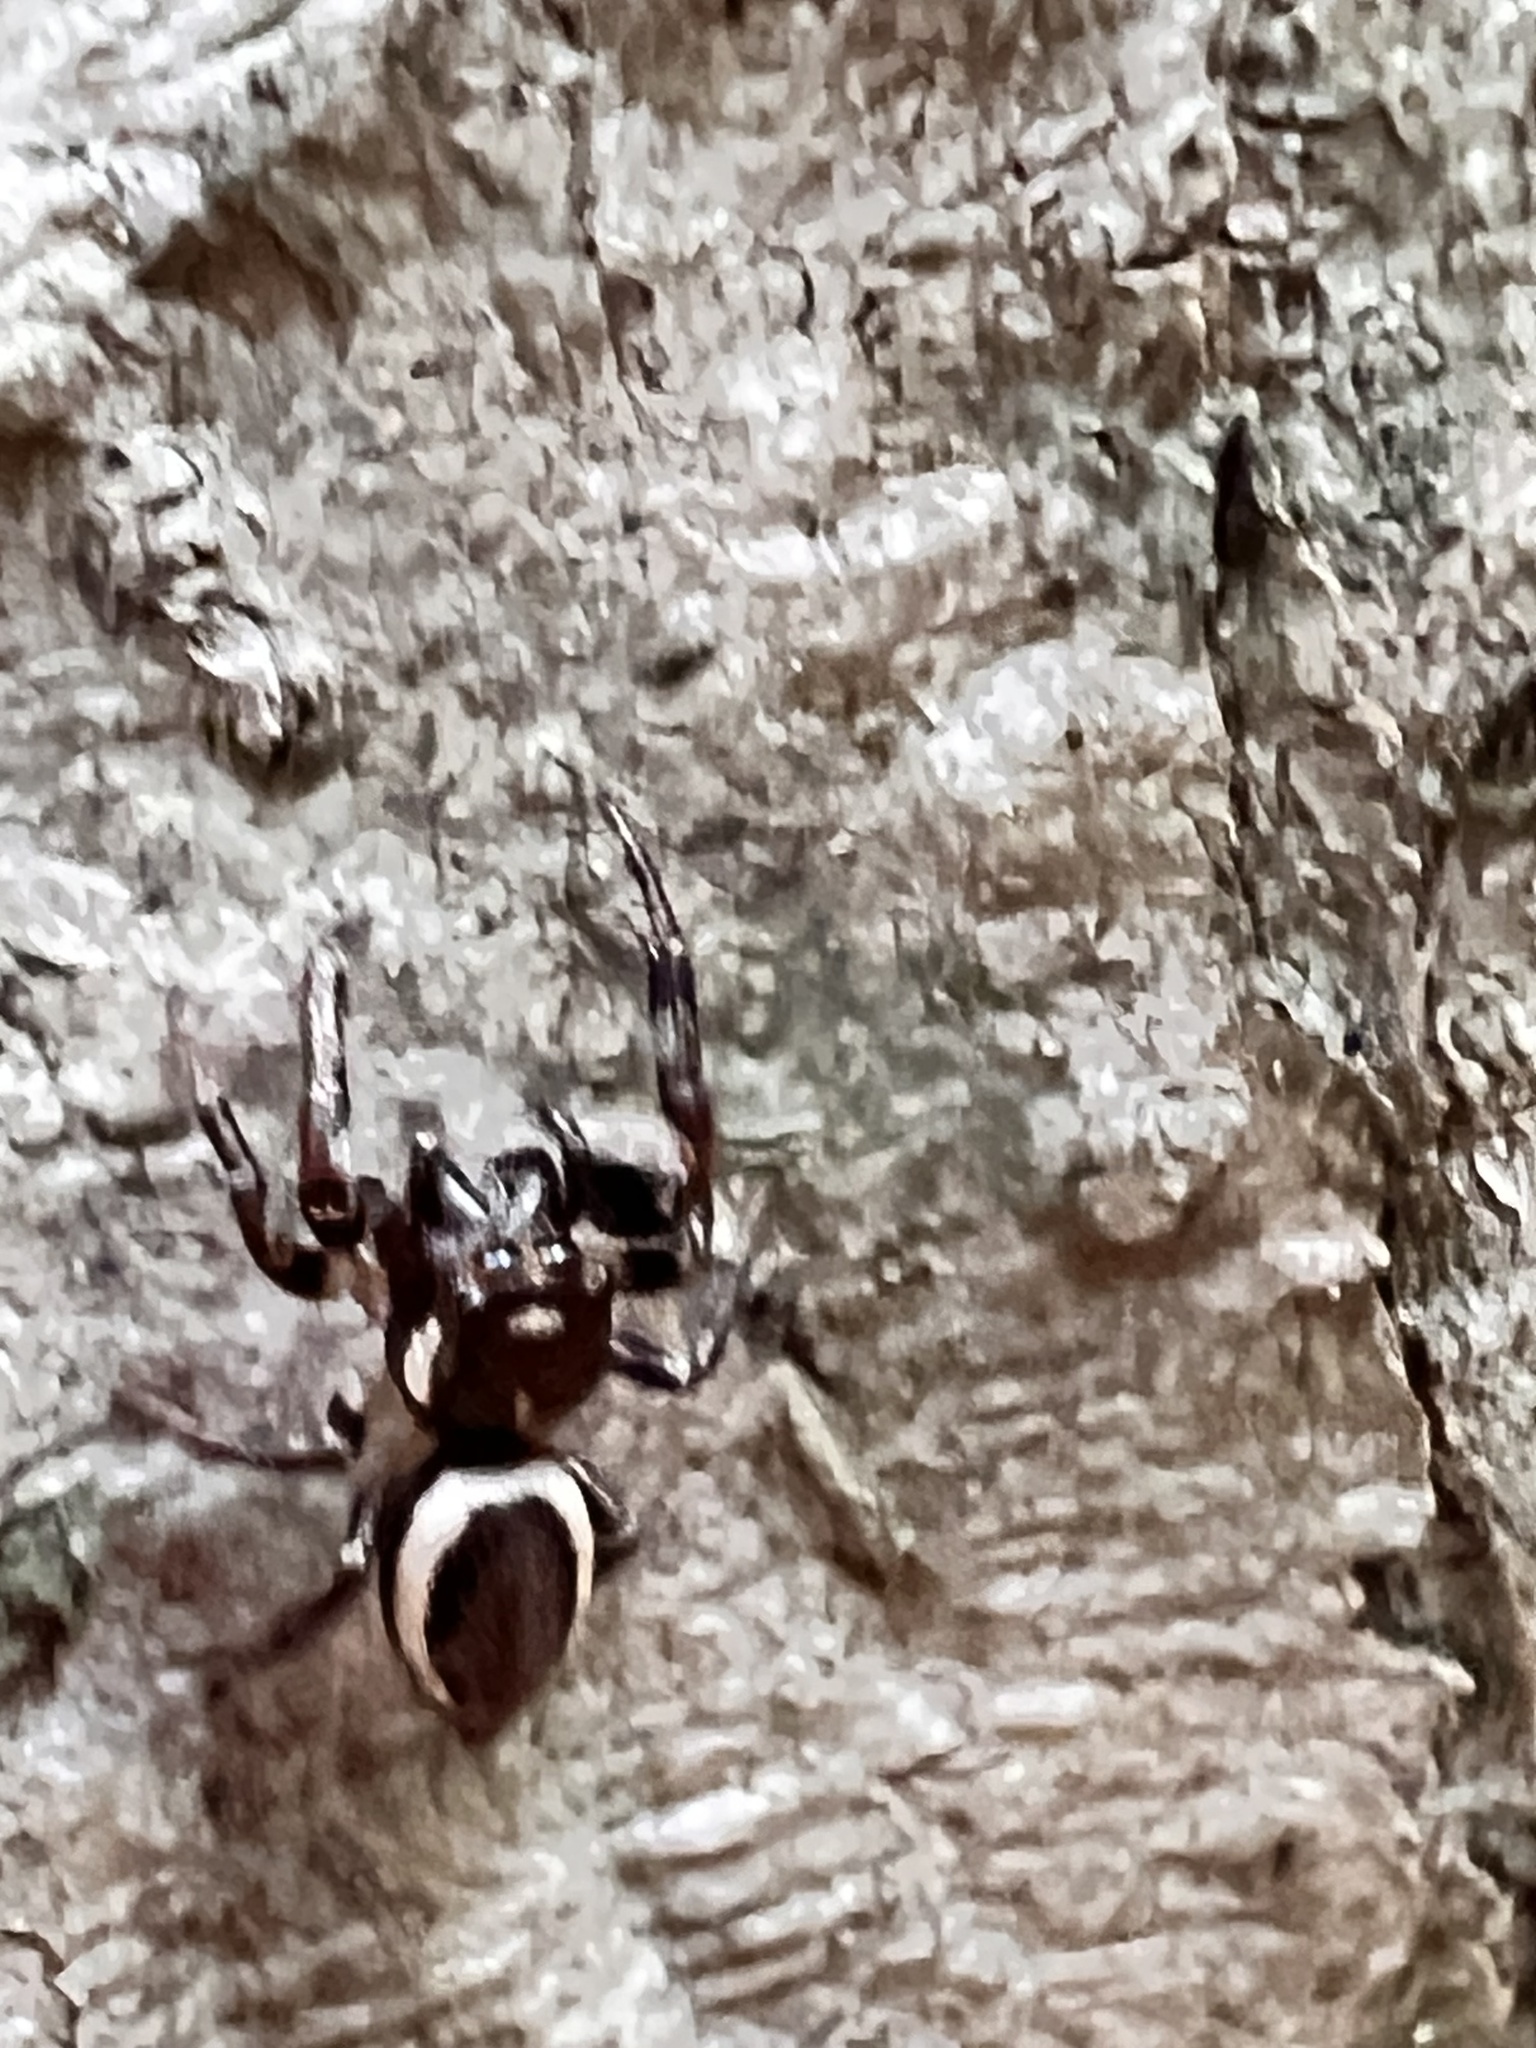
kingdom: Animalia
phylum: Arthropoda
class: Arachnida
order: Araneae
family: Salticidae
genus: Eris
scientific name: Eris militaris
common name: Bronze jumper
